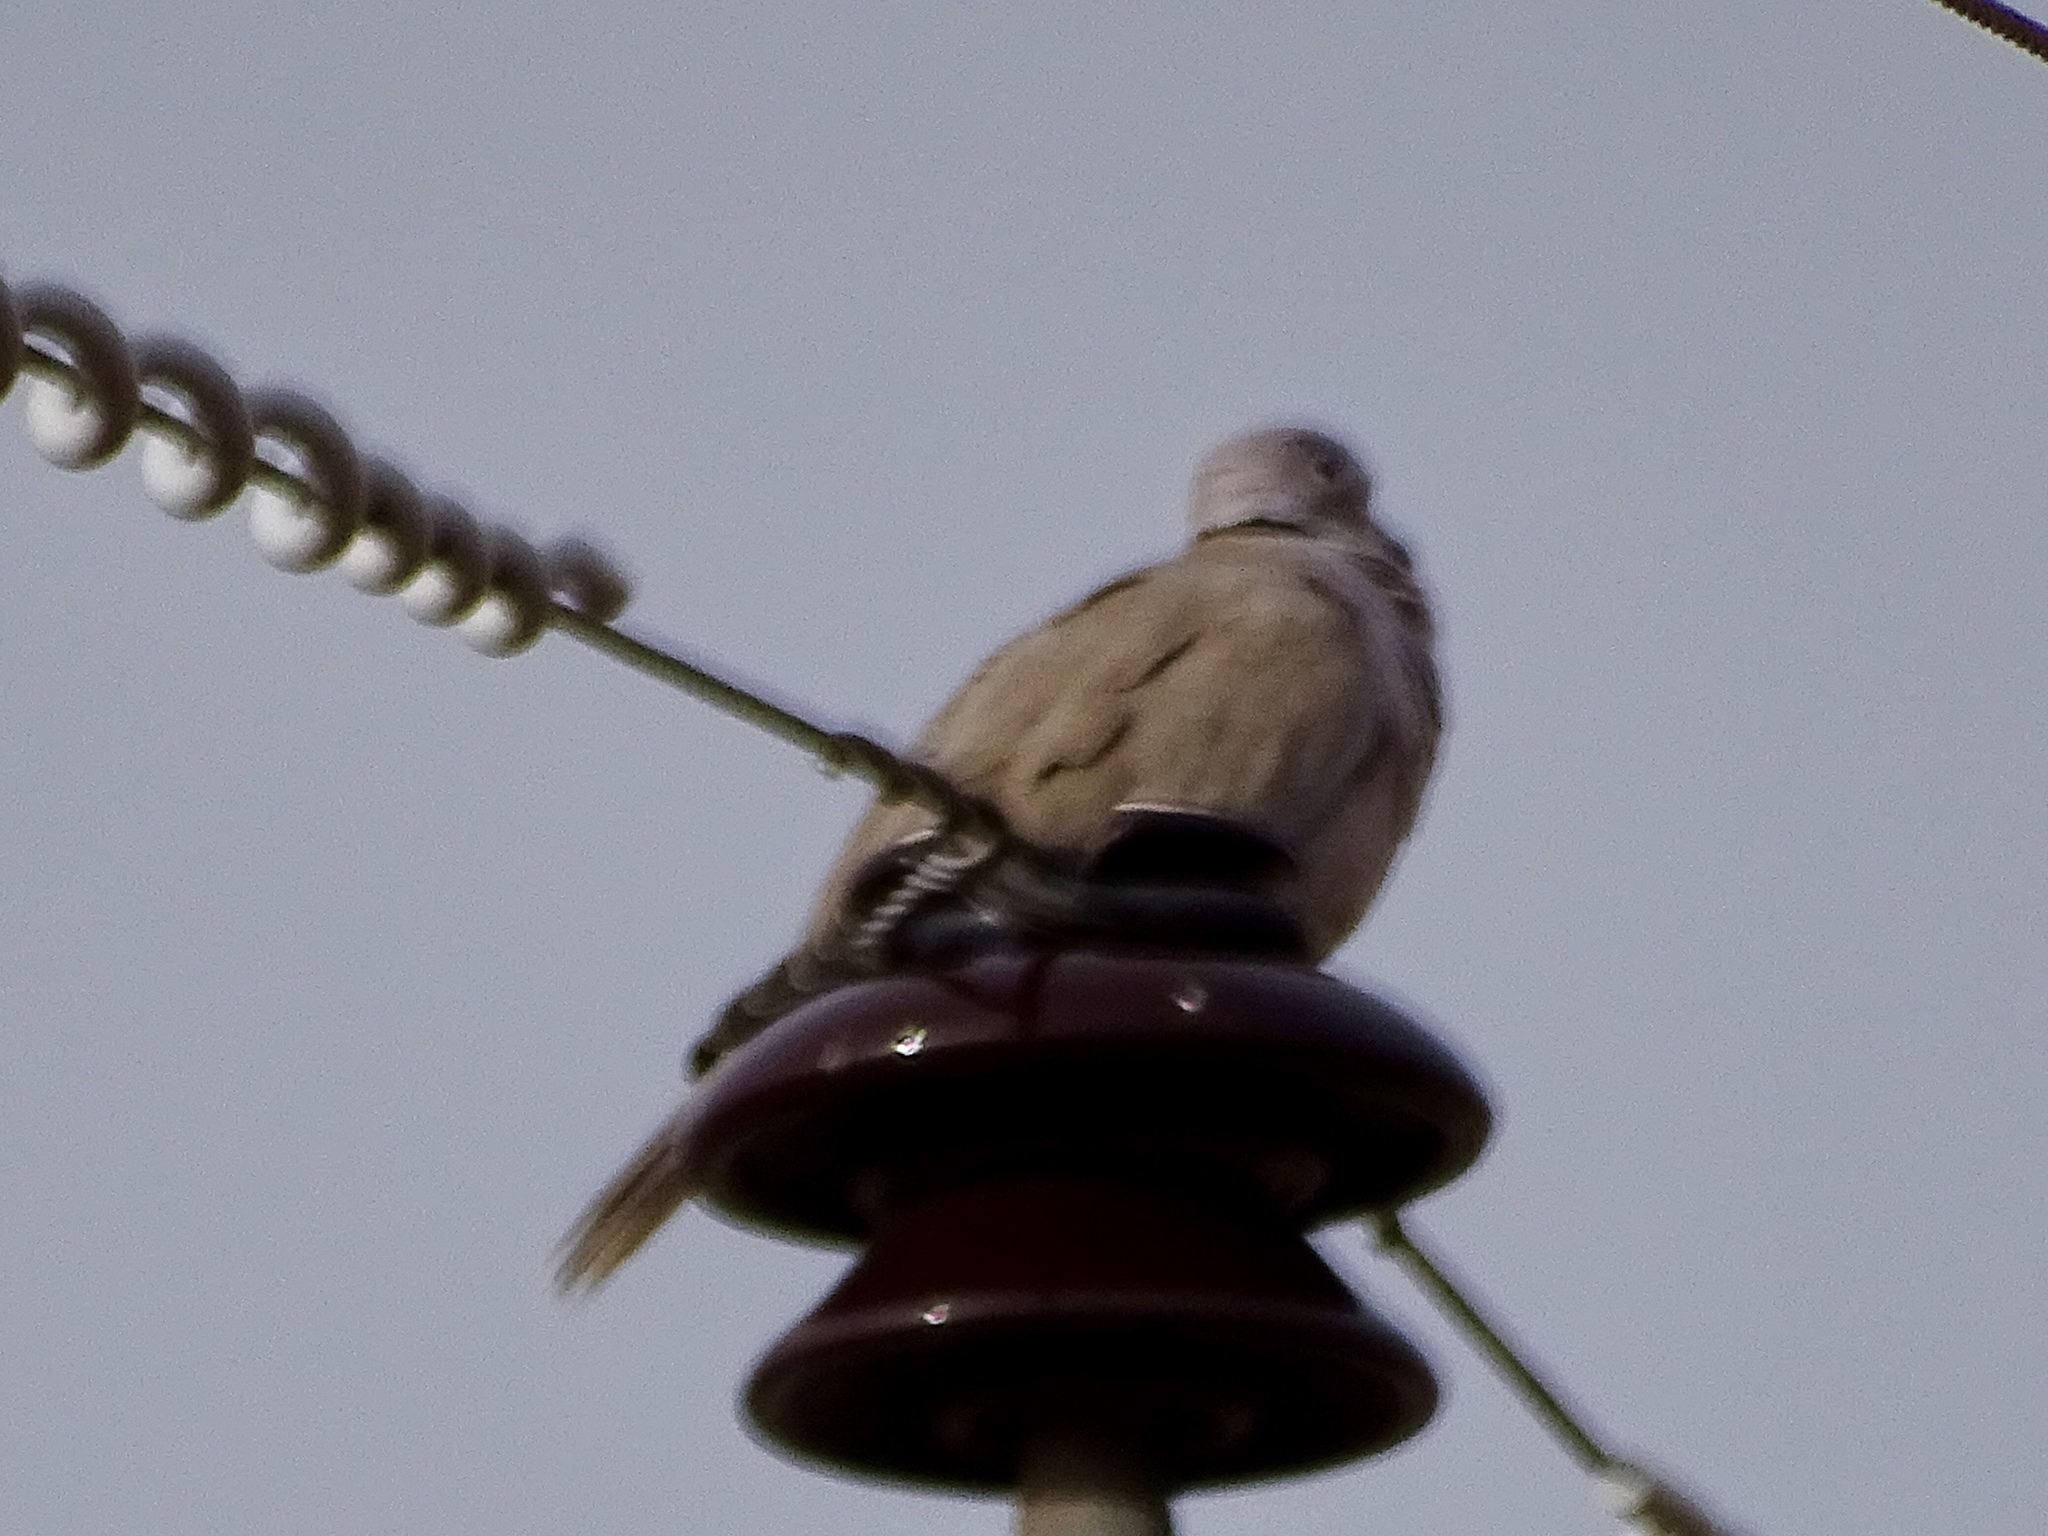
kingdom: Animalia
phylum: Chordata
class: Aves
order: Columbiformes
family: Columbidae
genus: Streptopelia
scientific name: Streptopelia decaocto
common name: Eurasian collared dove
